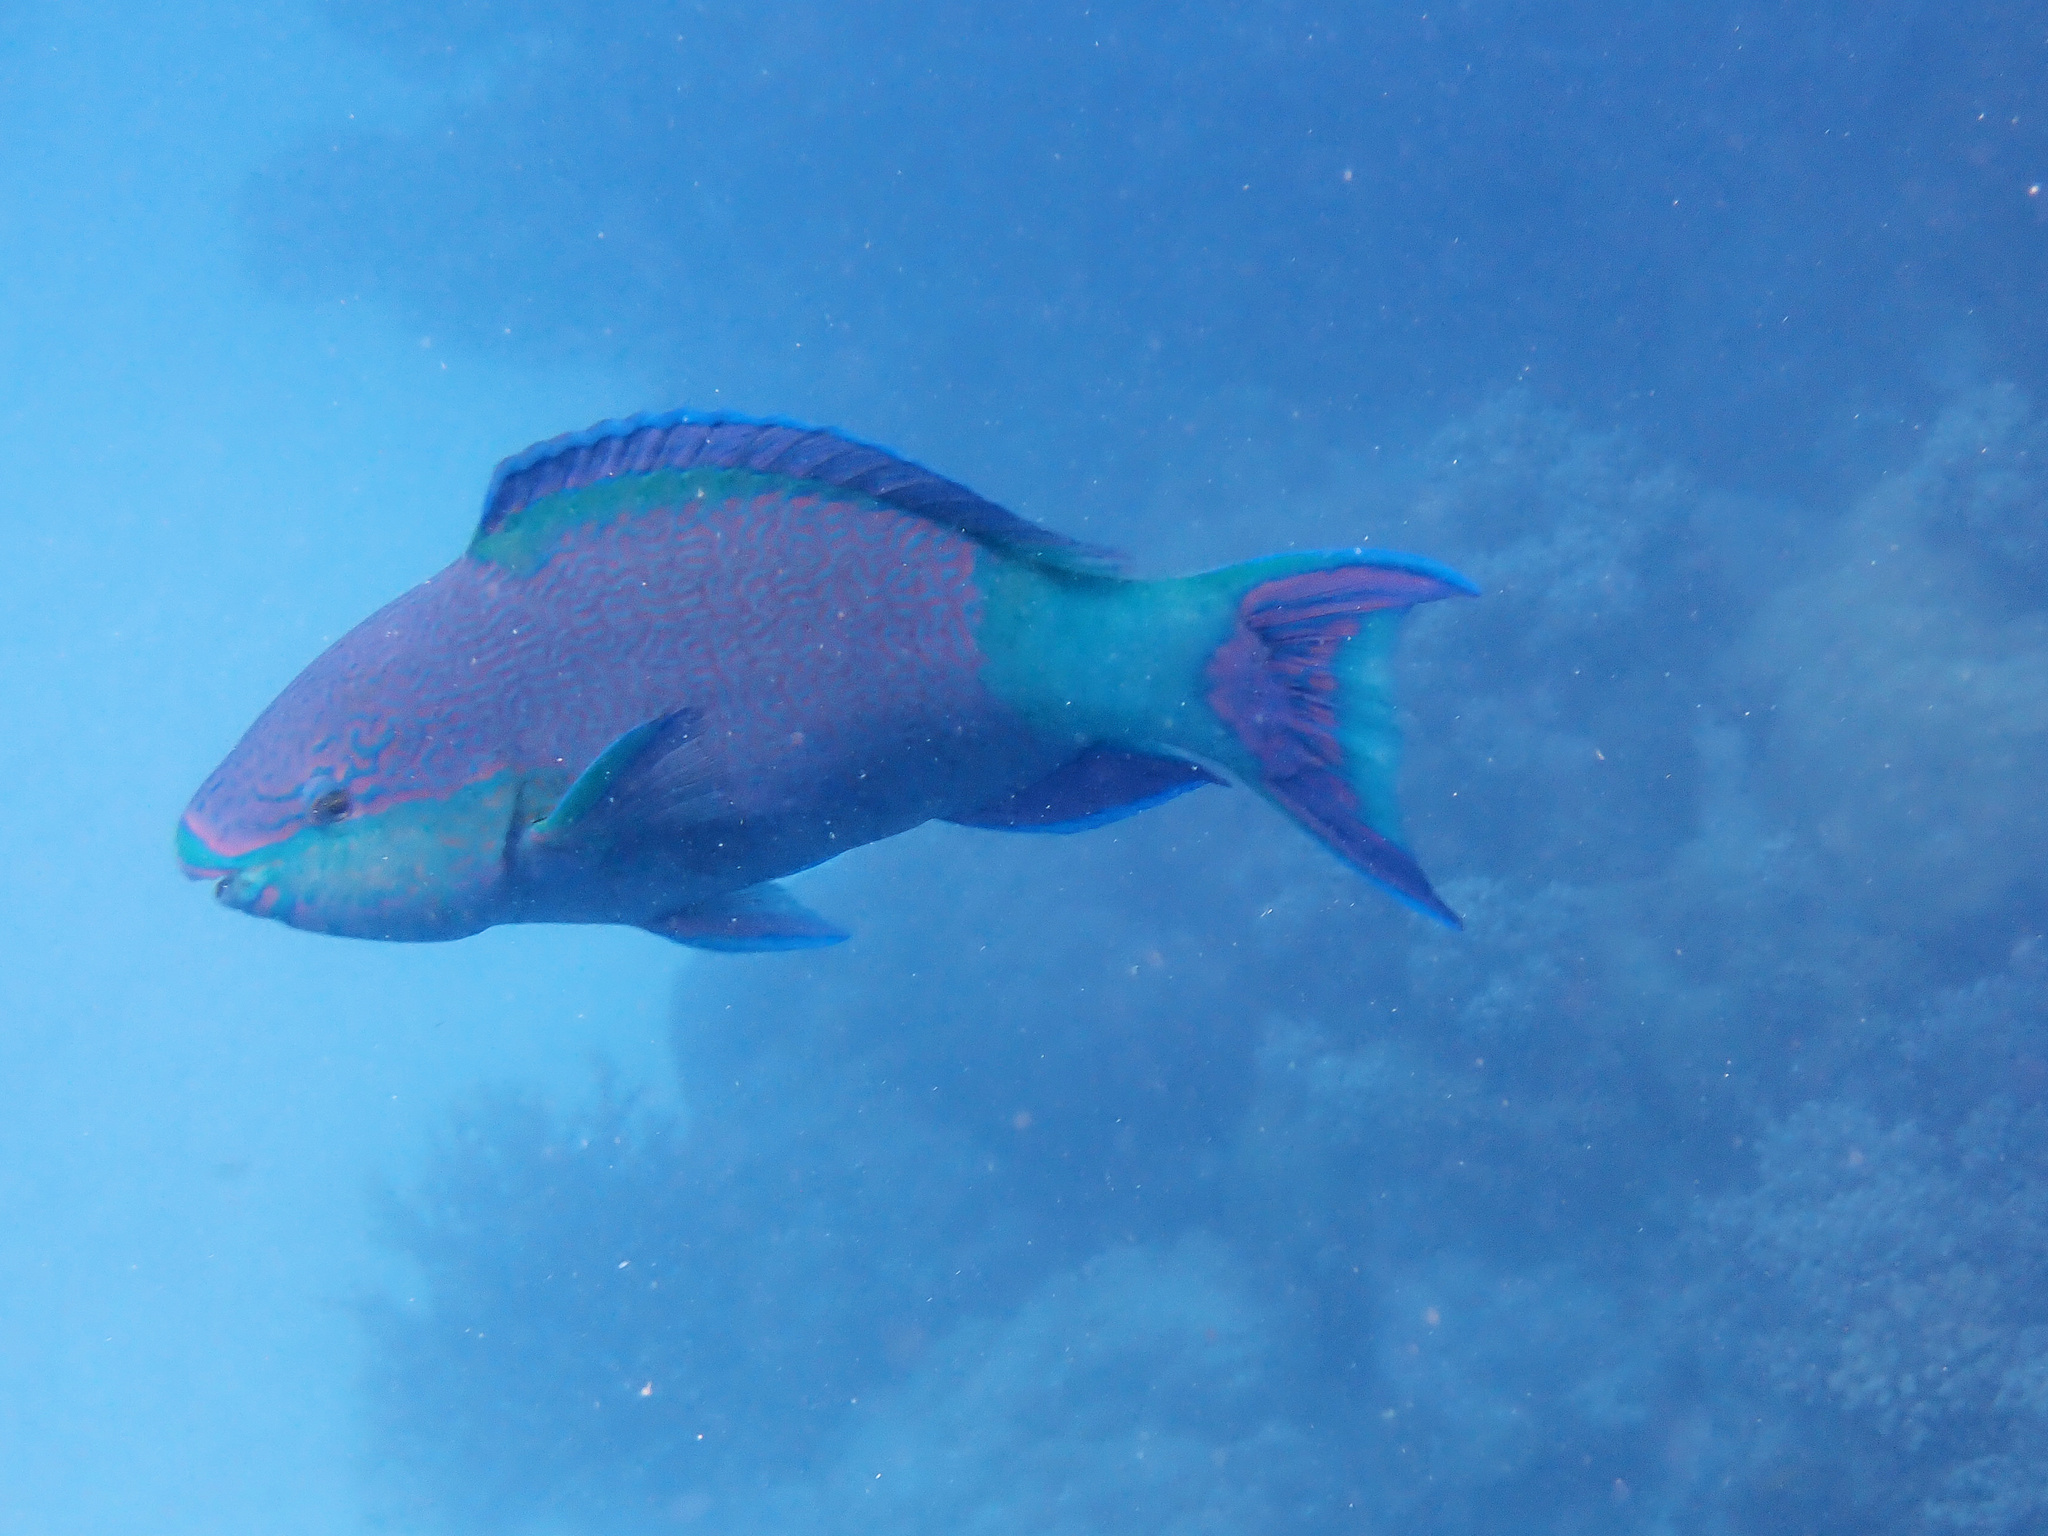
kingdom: Animalia
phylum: Chordata
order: Perciformes
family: Scaridae
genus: Scarus
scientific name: Scarus frenatus
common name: Bridled parrotfish
